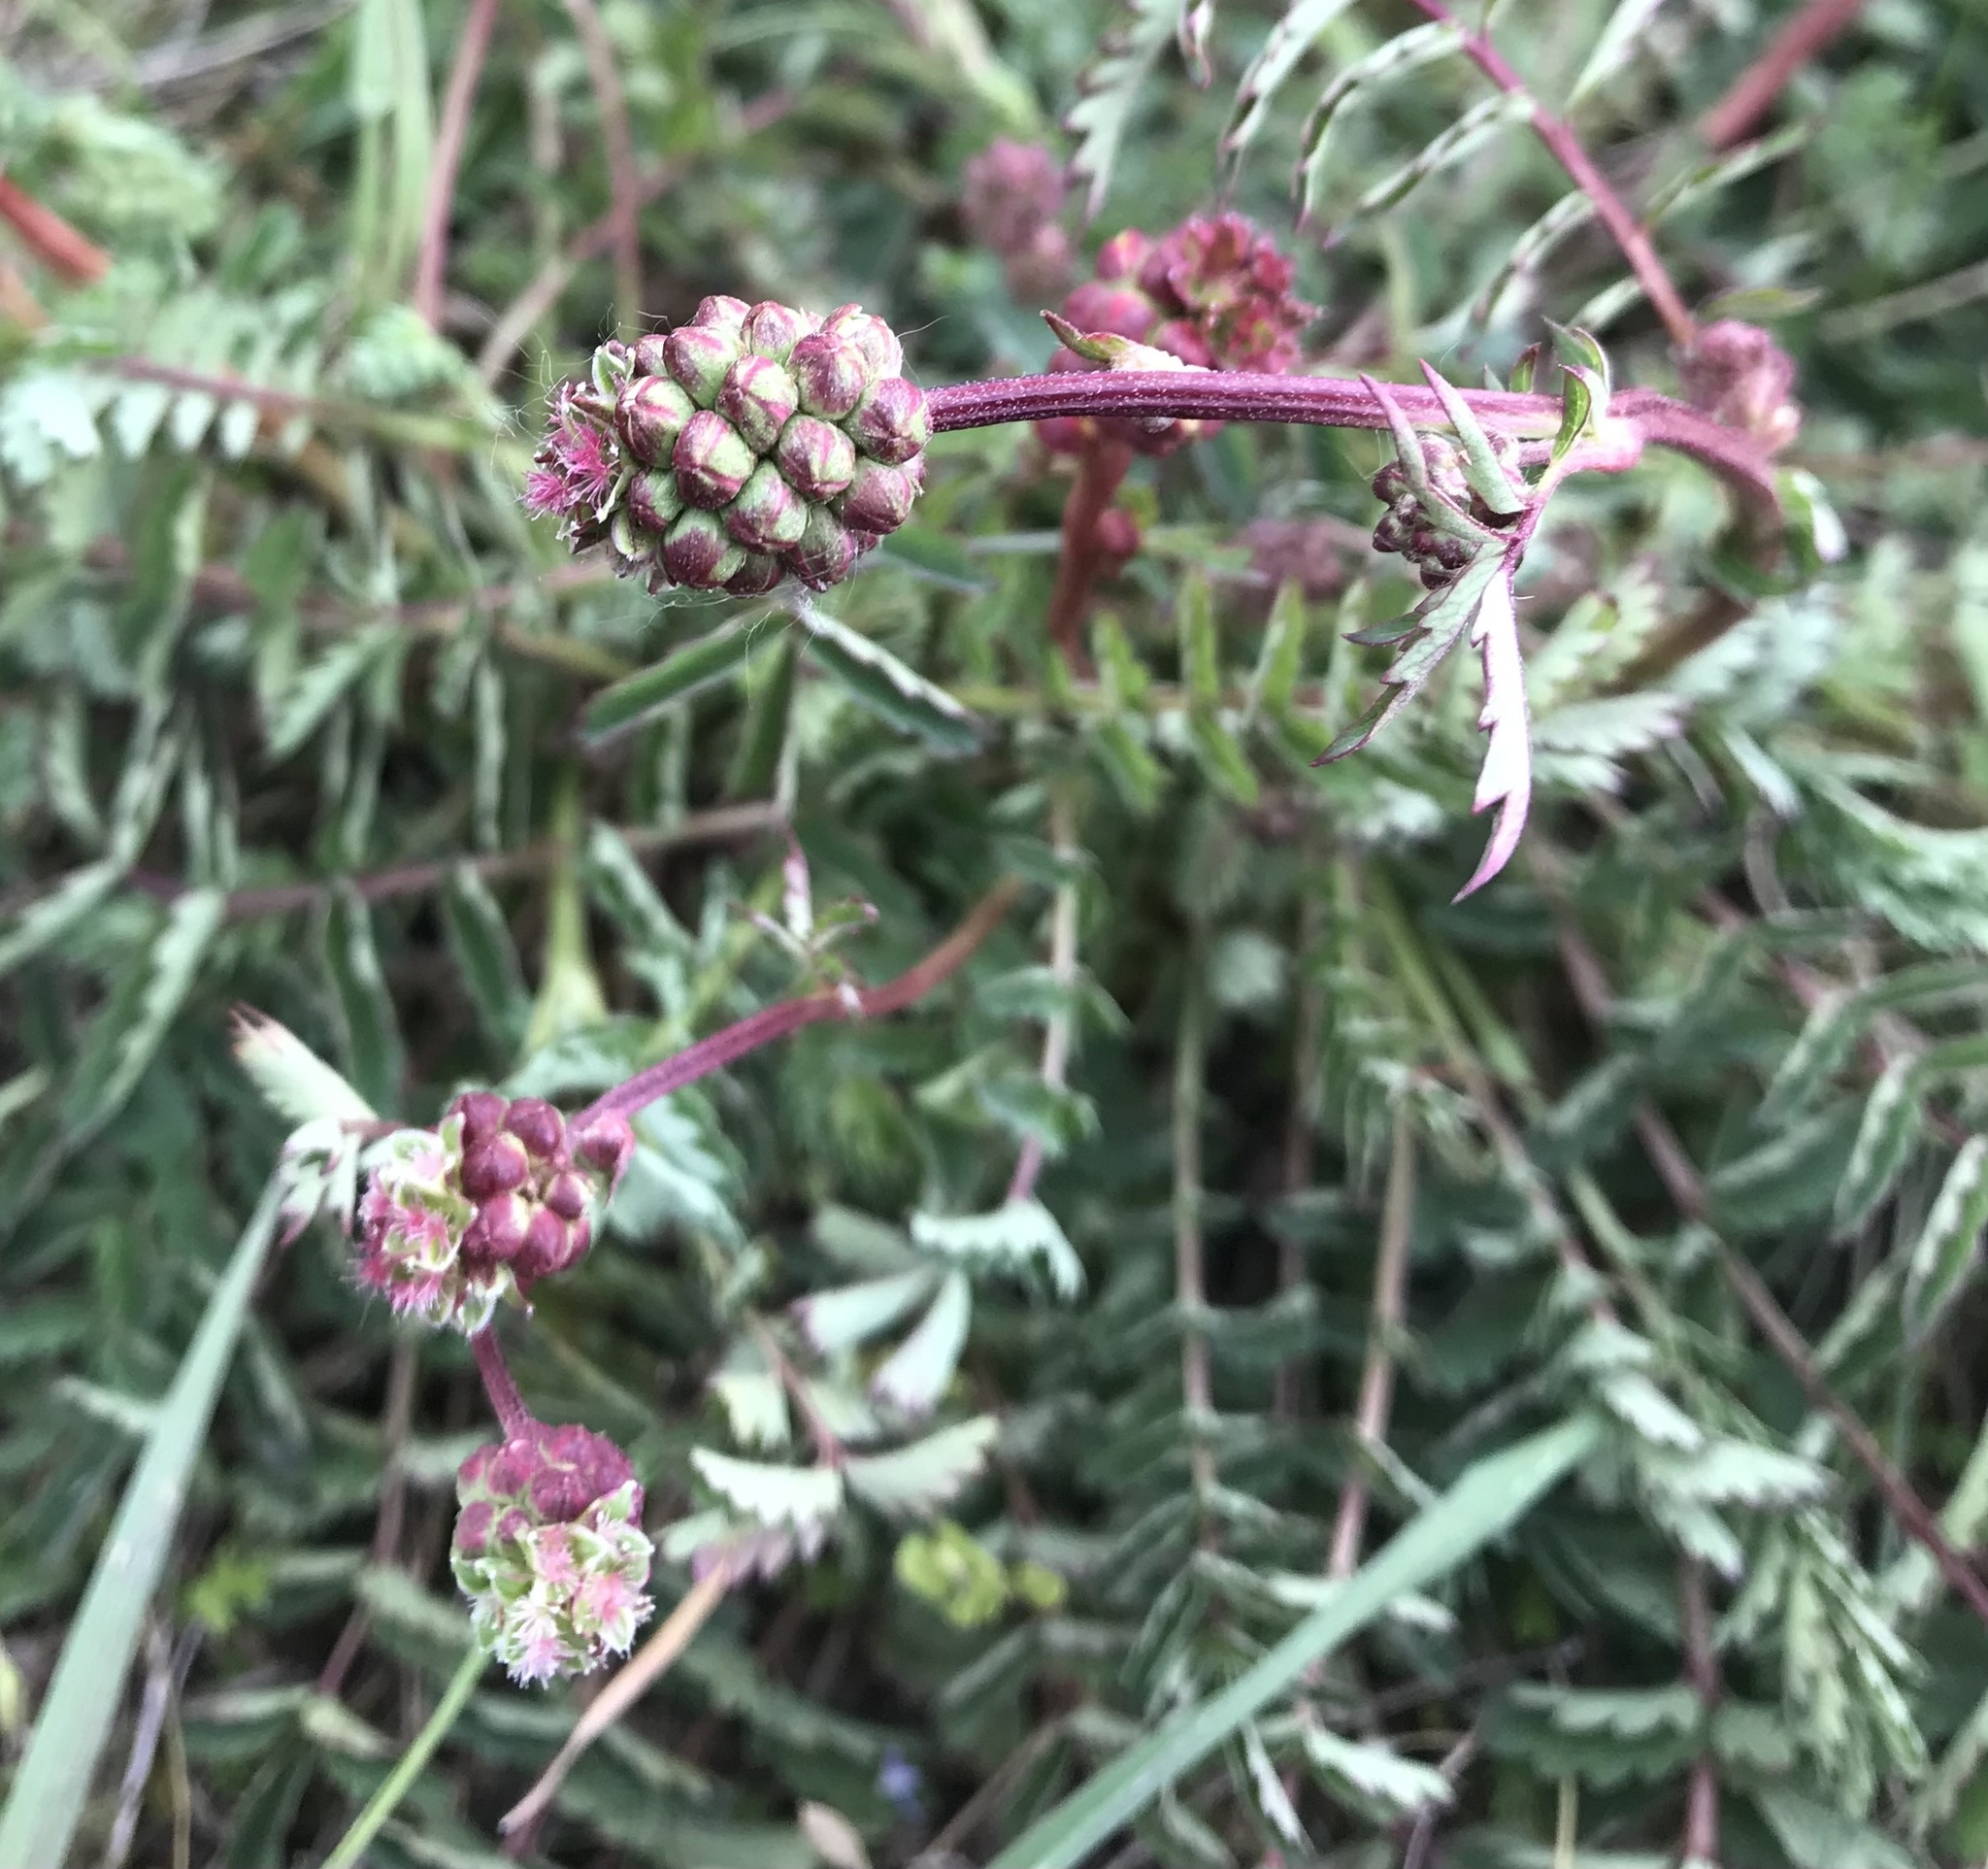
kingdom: Plantae
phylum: Tracheophyta
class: Magnoliopsida
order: Rosales
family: Rosaceae
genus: Poterium
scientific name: Poterium sanguisorba
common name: Salad burnet
